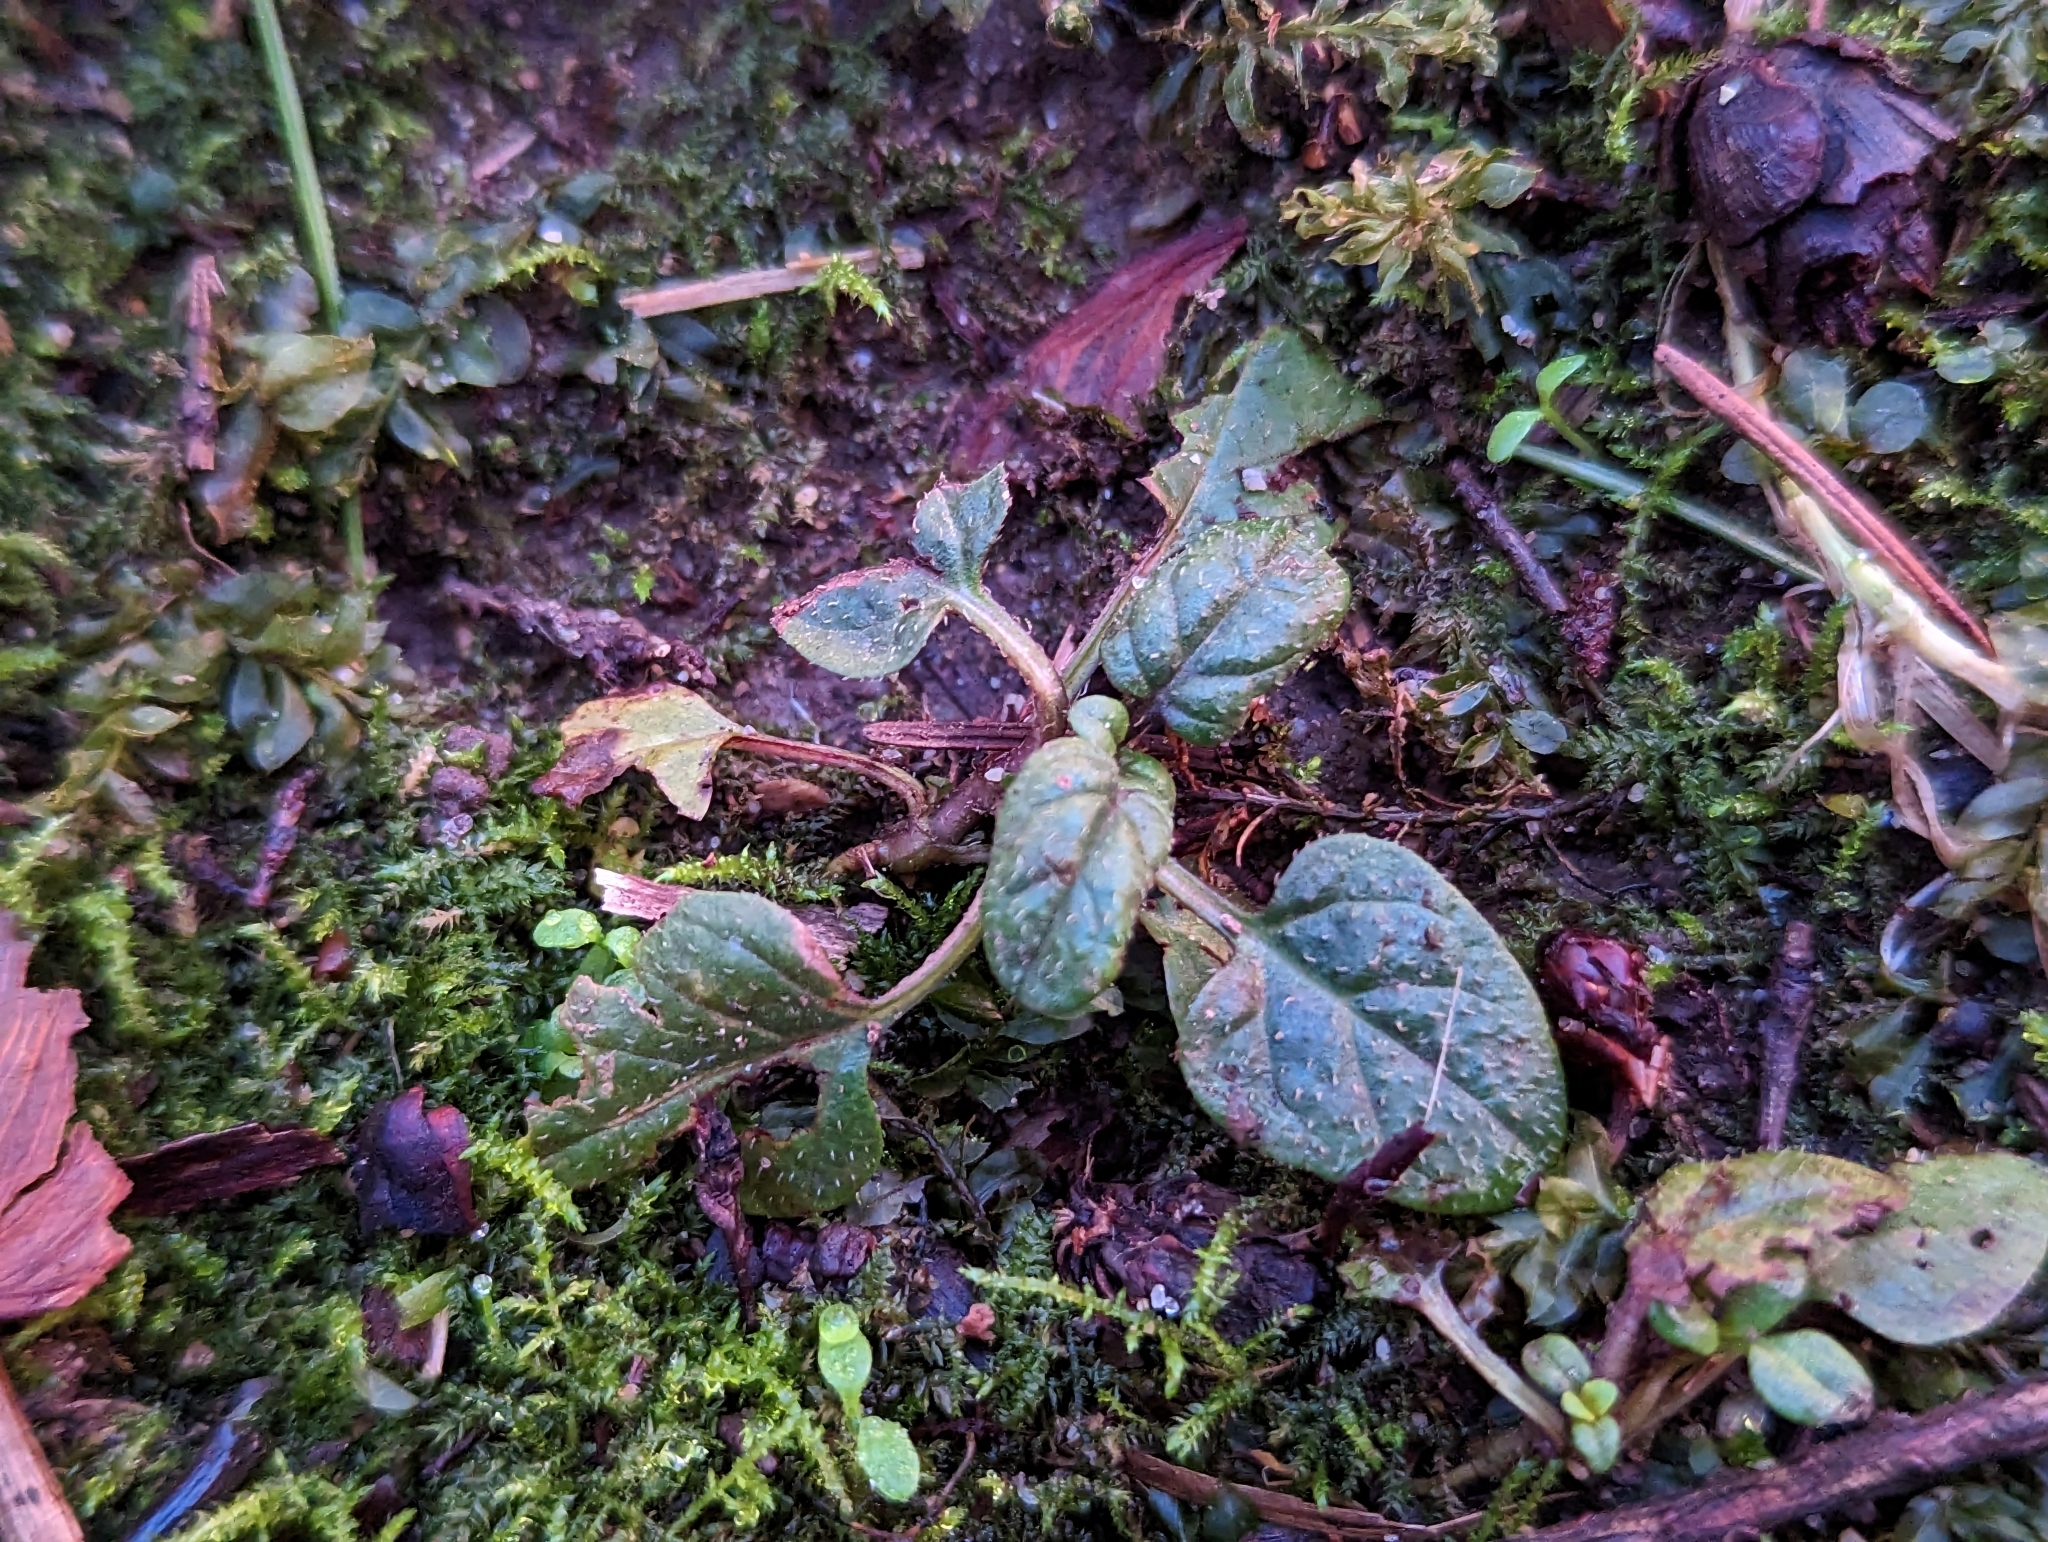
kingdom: Plantae
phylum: Tracheophyta
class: Magnoliopsida
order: Lamiales
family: Lamiaceae
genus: Prunella
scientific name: Prunella vulgaris
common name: Heal-all
